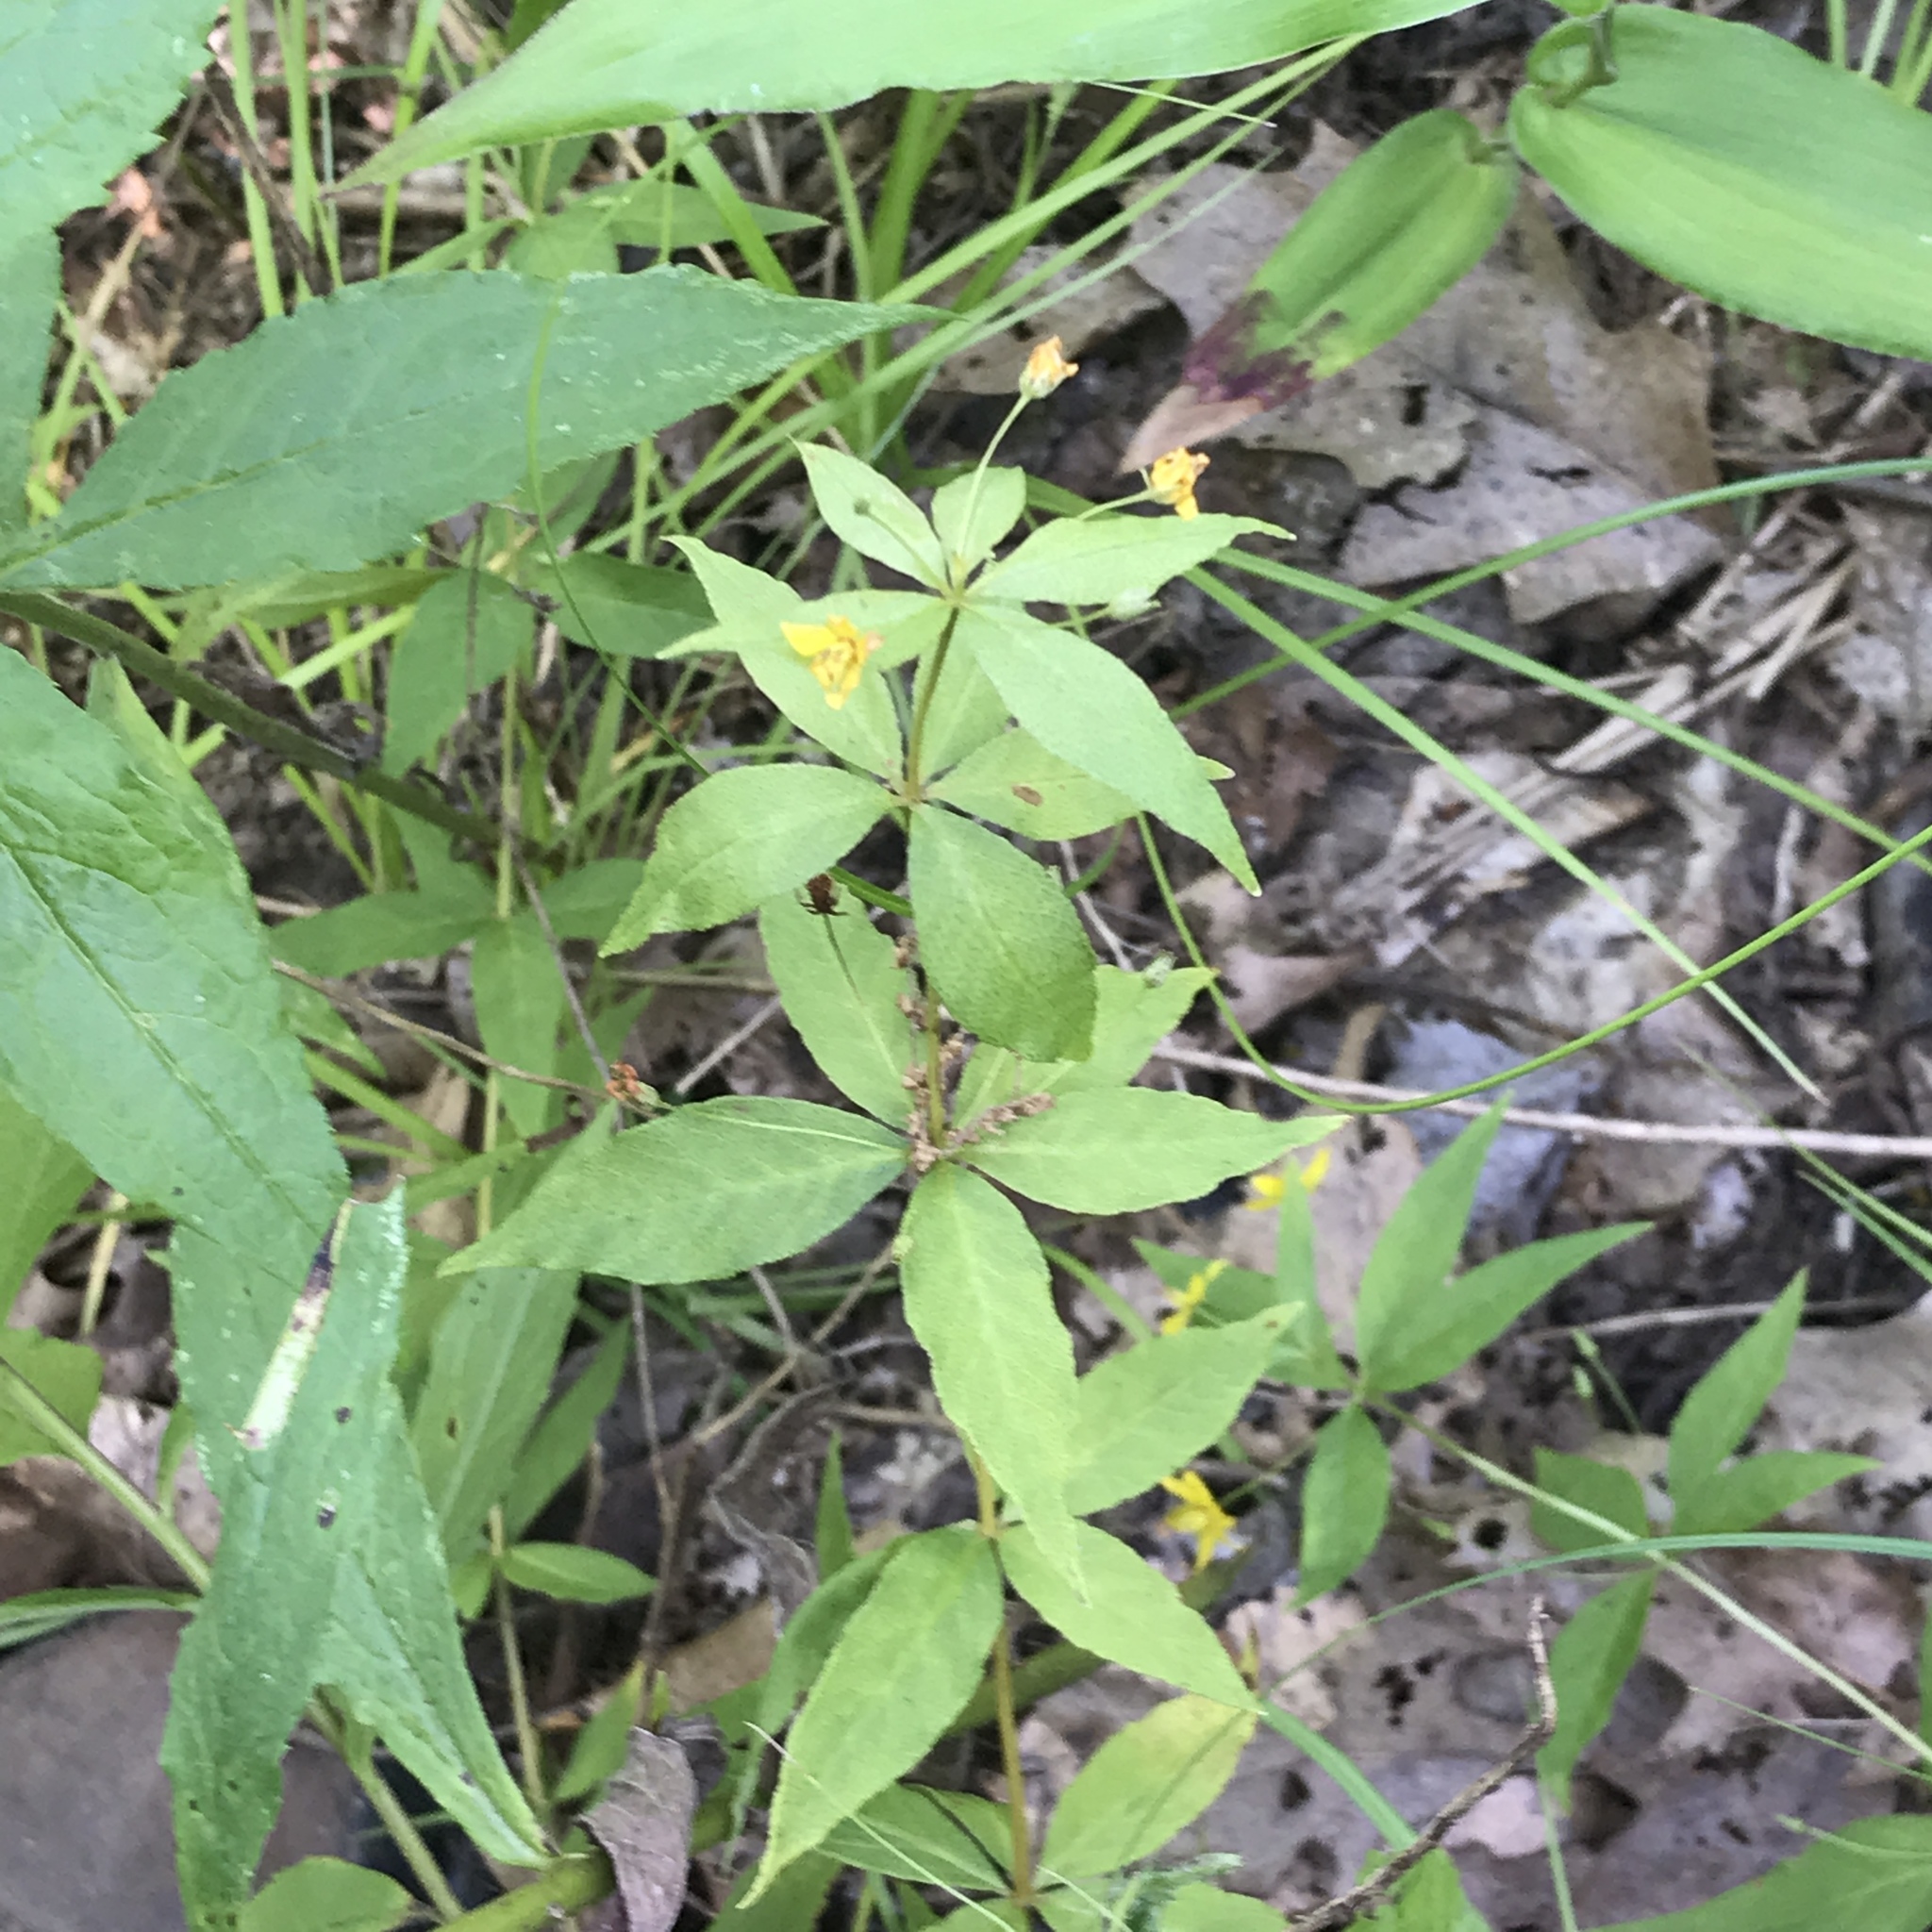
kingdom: Plantae
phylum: Tracheophyta
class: Magnoliopsida
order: Ericales
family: Primulaceae
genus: Lysimachia
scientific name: Lysimachia quadrifolia
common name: Whorled loosestrife
